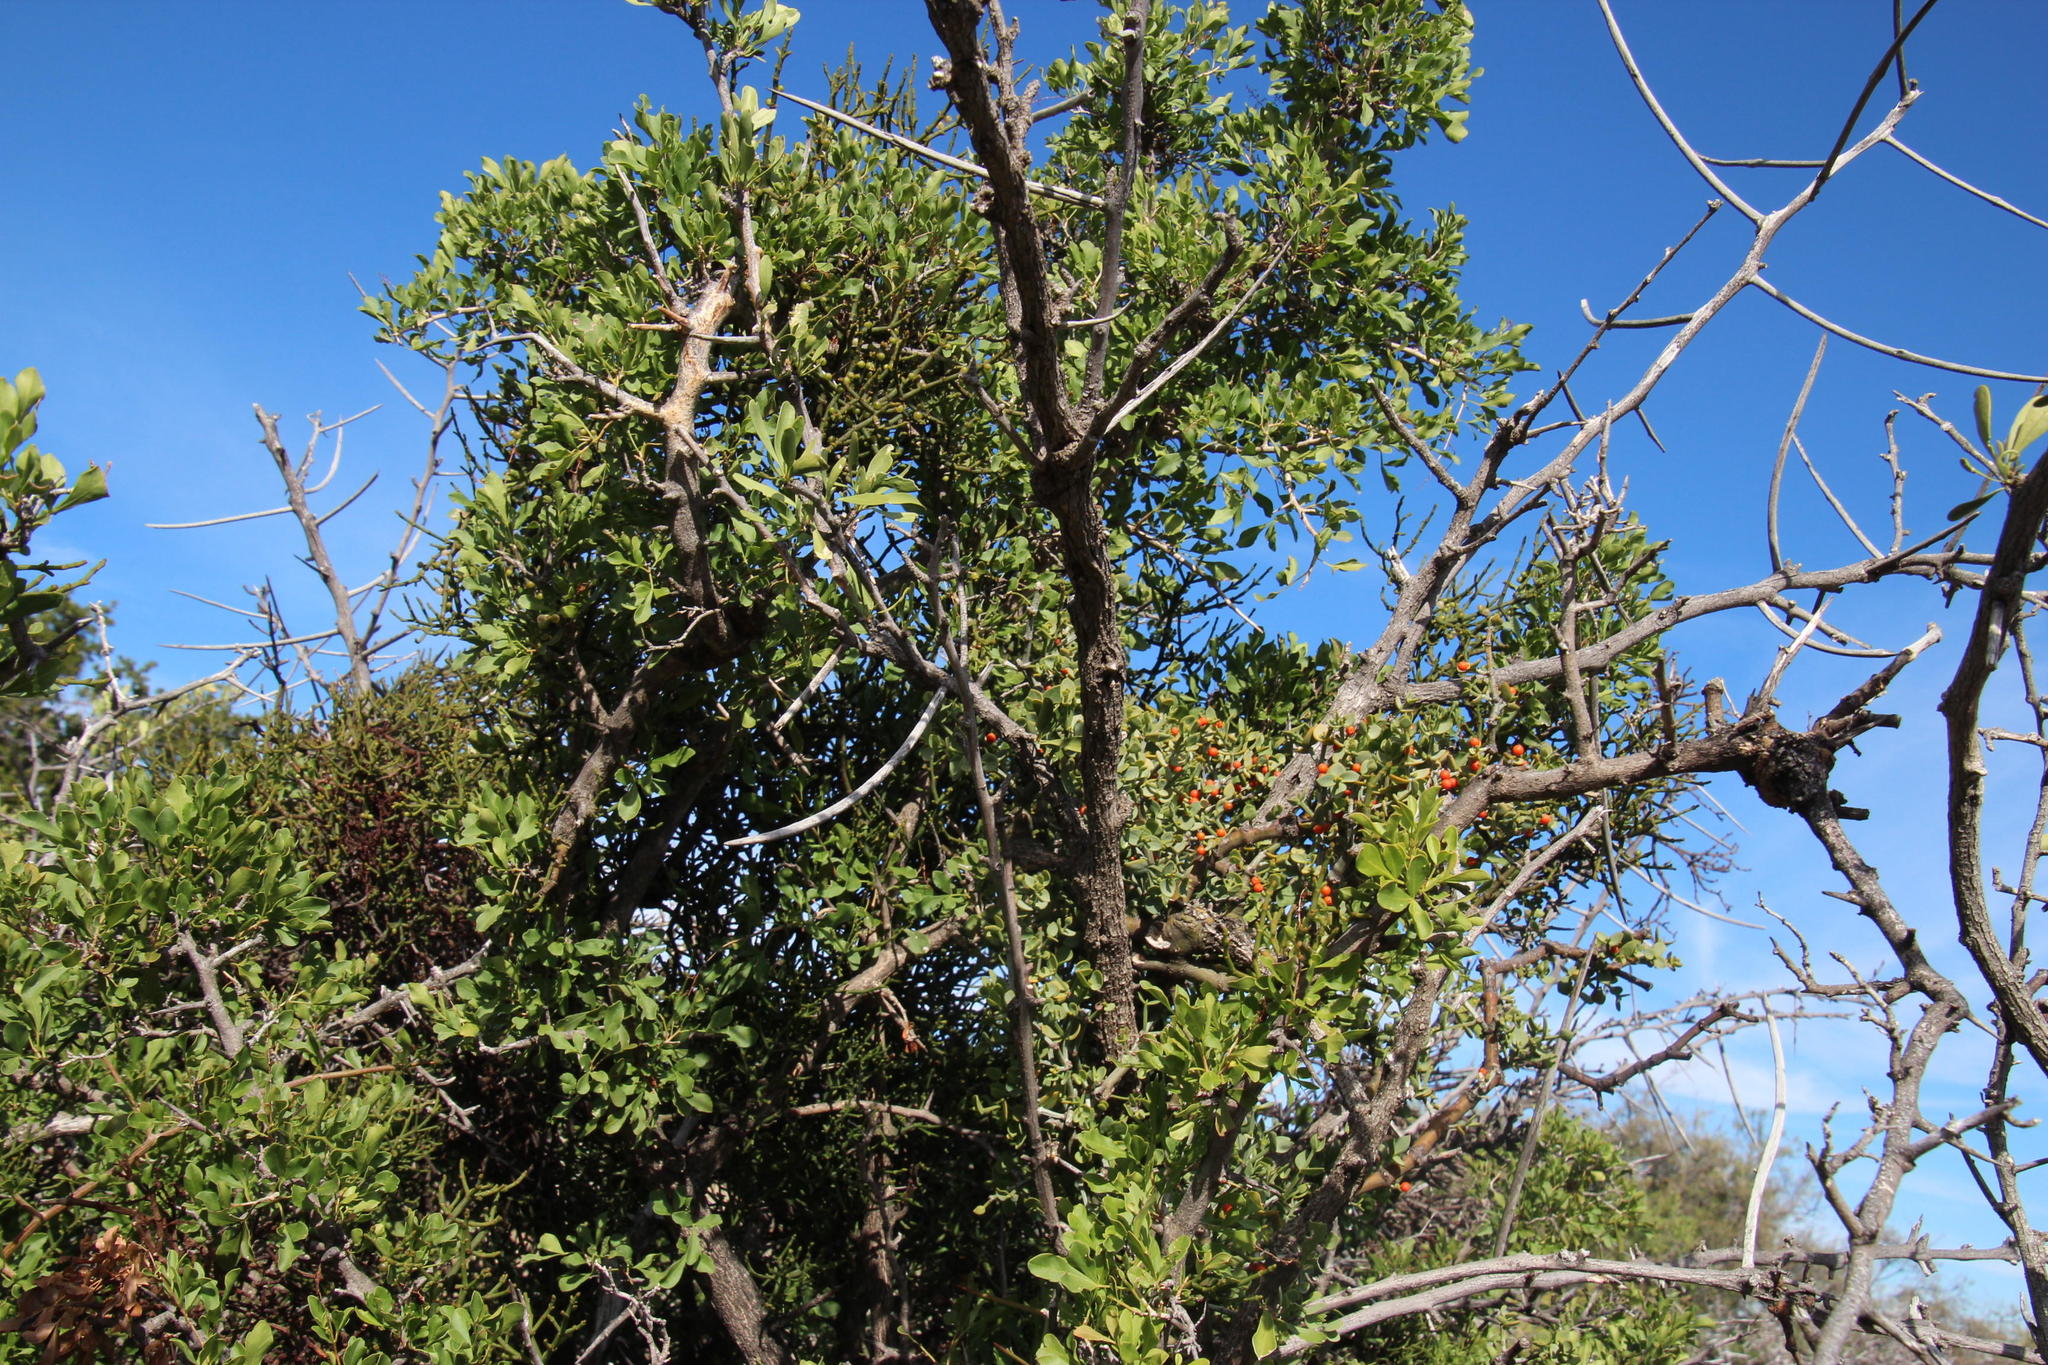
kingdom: Plantae
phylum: Tracheophyta
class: Magnoliopsida
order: Celastrales
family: Celastraceae
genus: Gymnosporia
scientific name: Gymnosporia buxifolia
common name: Common spike-thorn
